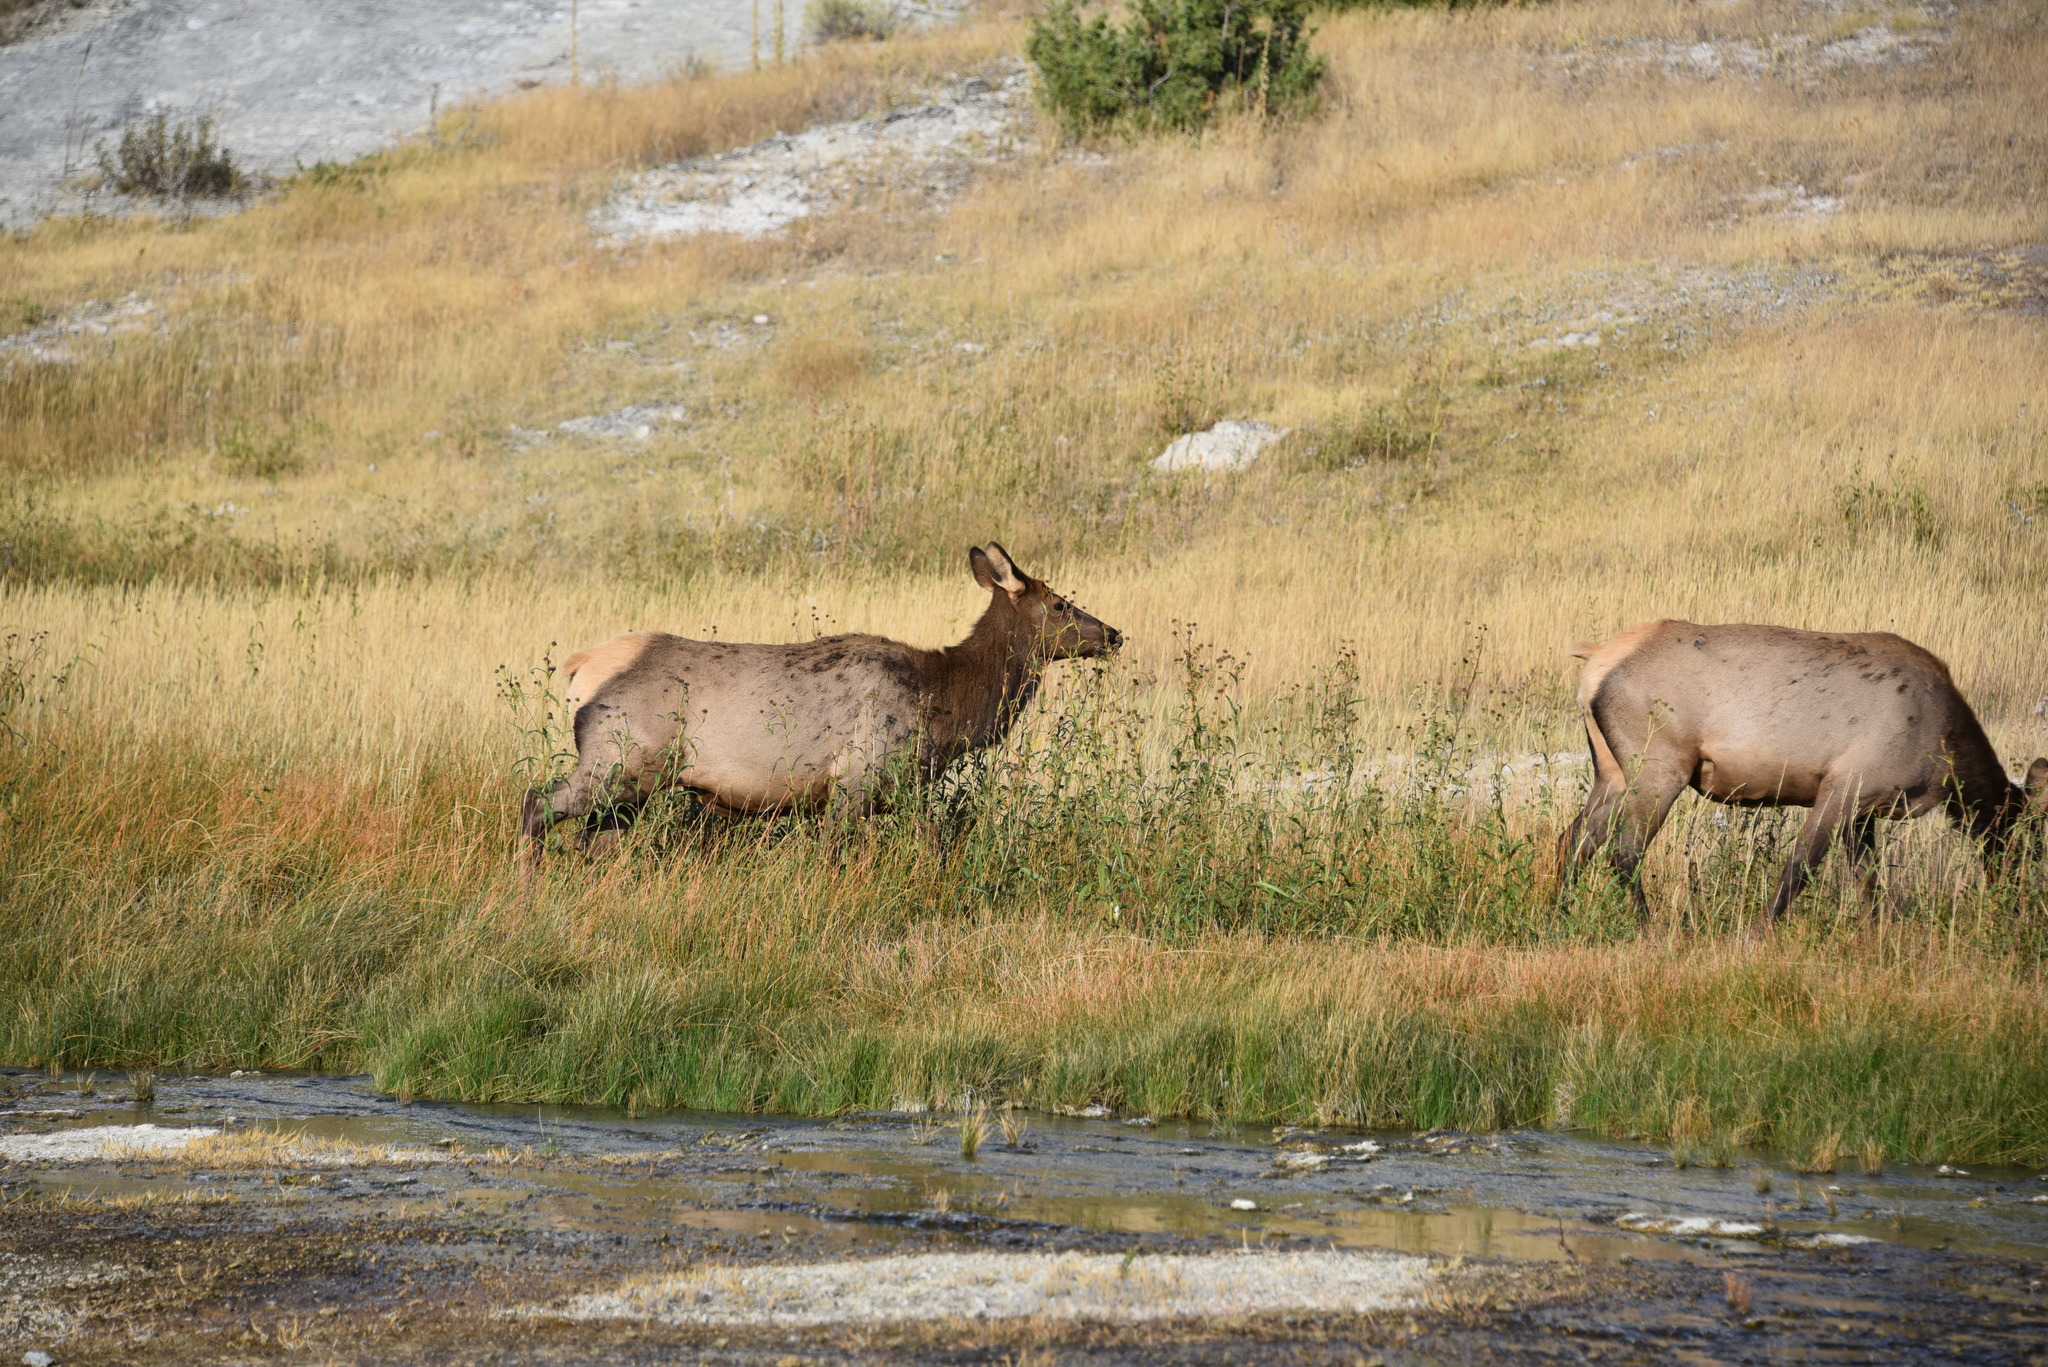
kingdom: Animalia
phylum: Chordata
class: Mammalia
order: Artiodactyla
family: Cervidae
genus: Cervus
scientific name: Cervus elaphus
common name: Red deer
